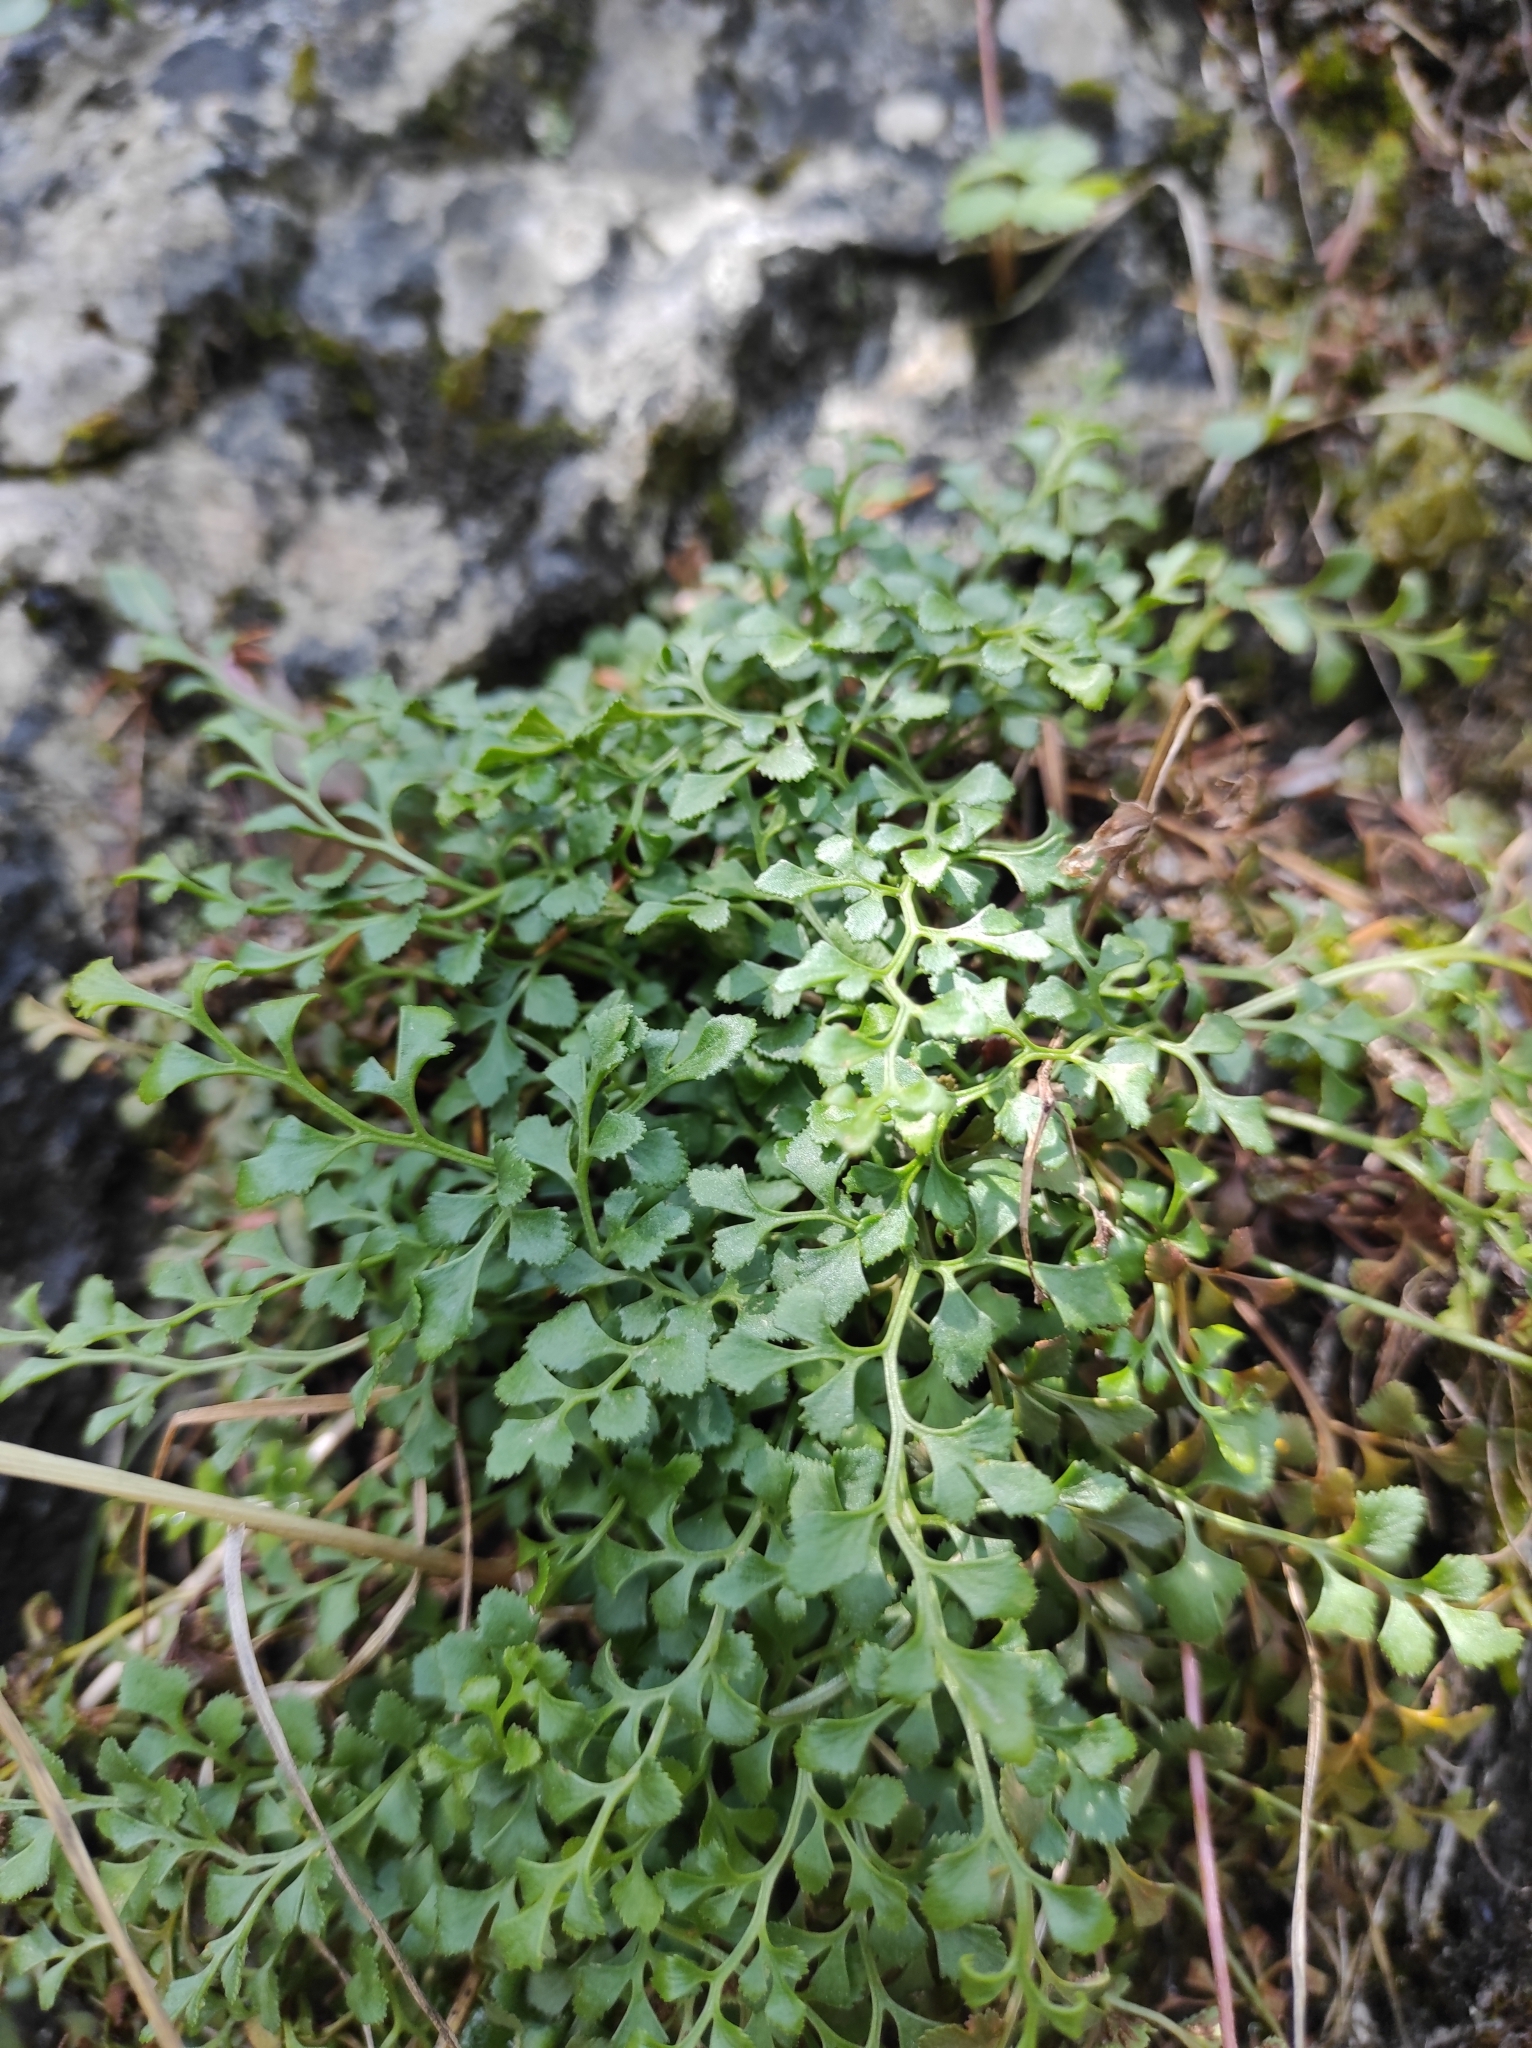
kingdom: Plantae
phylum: Tracheophyta
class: Polypodiopsida
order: Polypodiales
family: Aspleniaceae
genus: Asplenium
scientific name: Asplenium ruta-muraria
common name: Wall-rue
